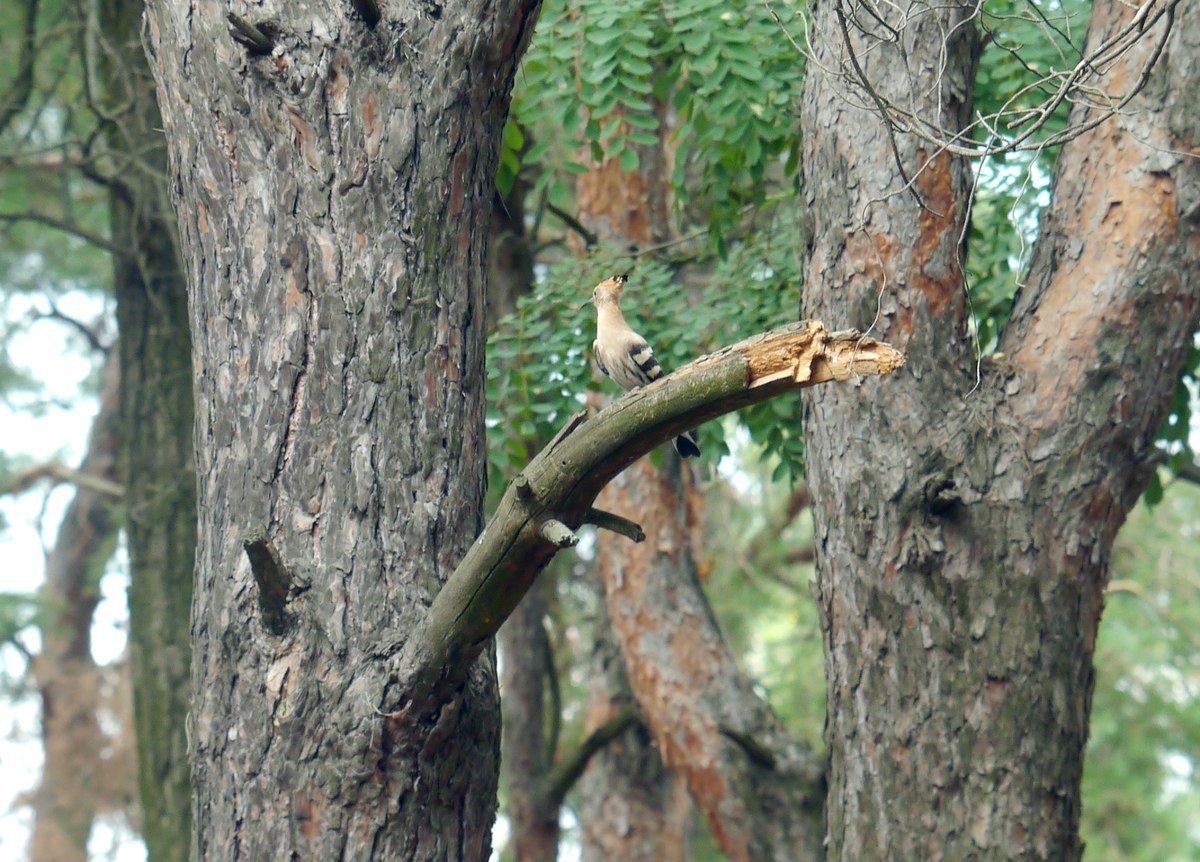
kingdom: Animalia
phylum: Chordata
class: Aves
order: Bucerotiformes
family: Upupidae
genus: Upupa
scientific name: Upupa epops
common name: Eurasian hoopoe
